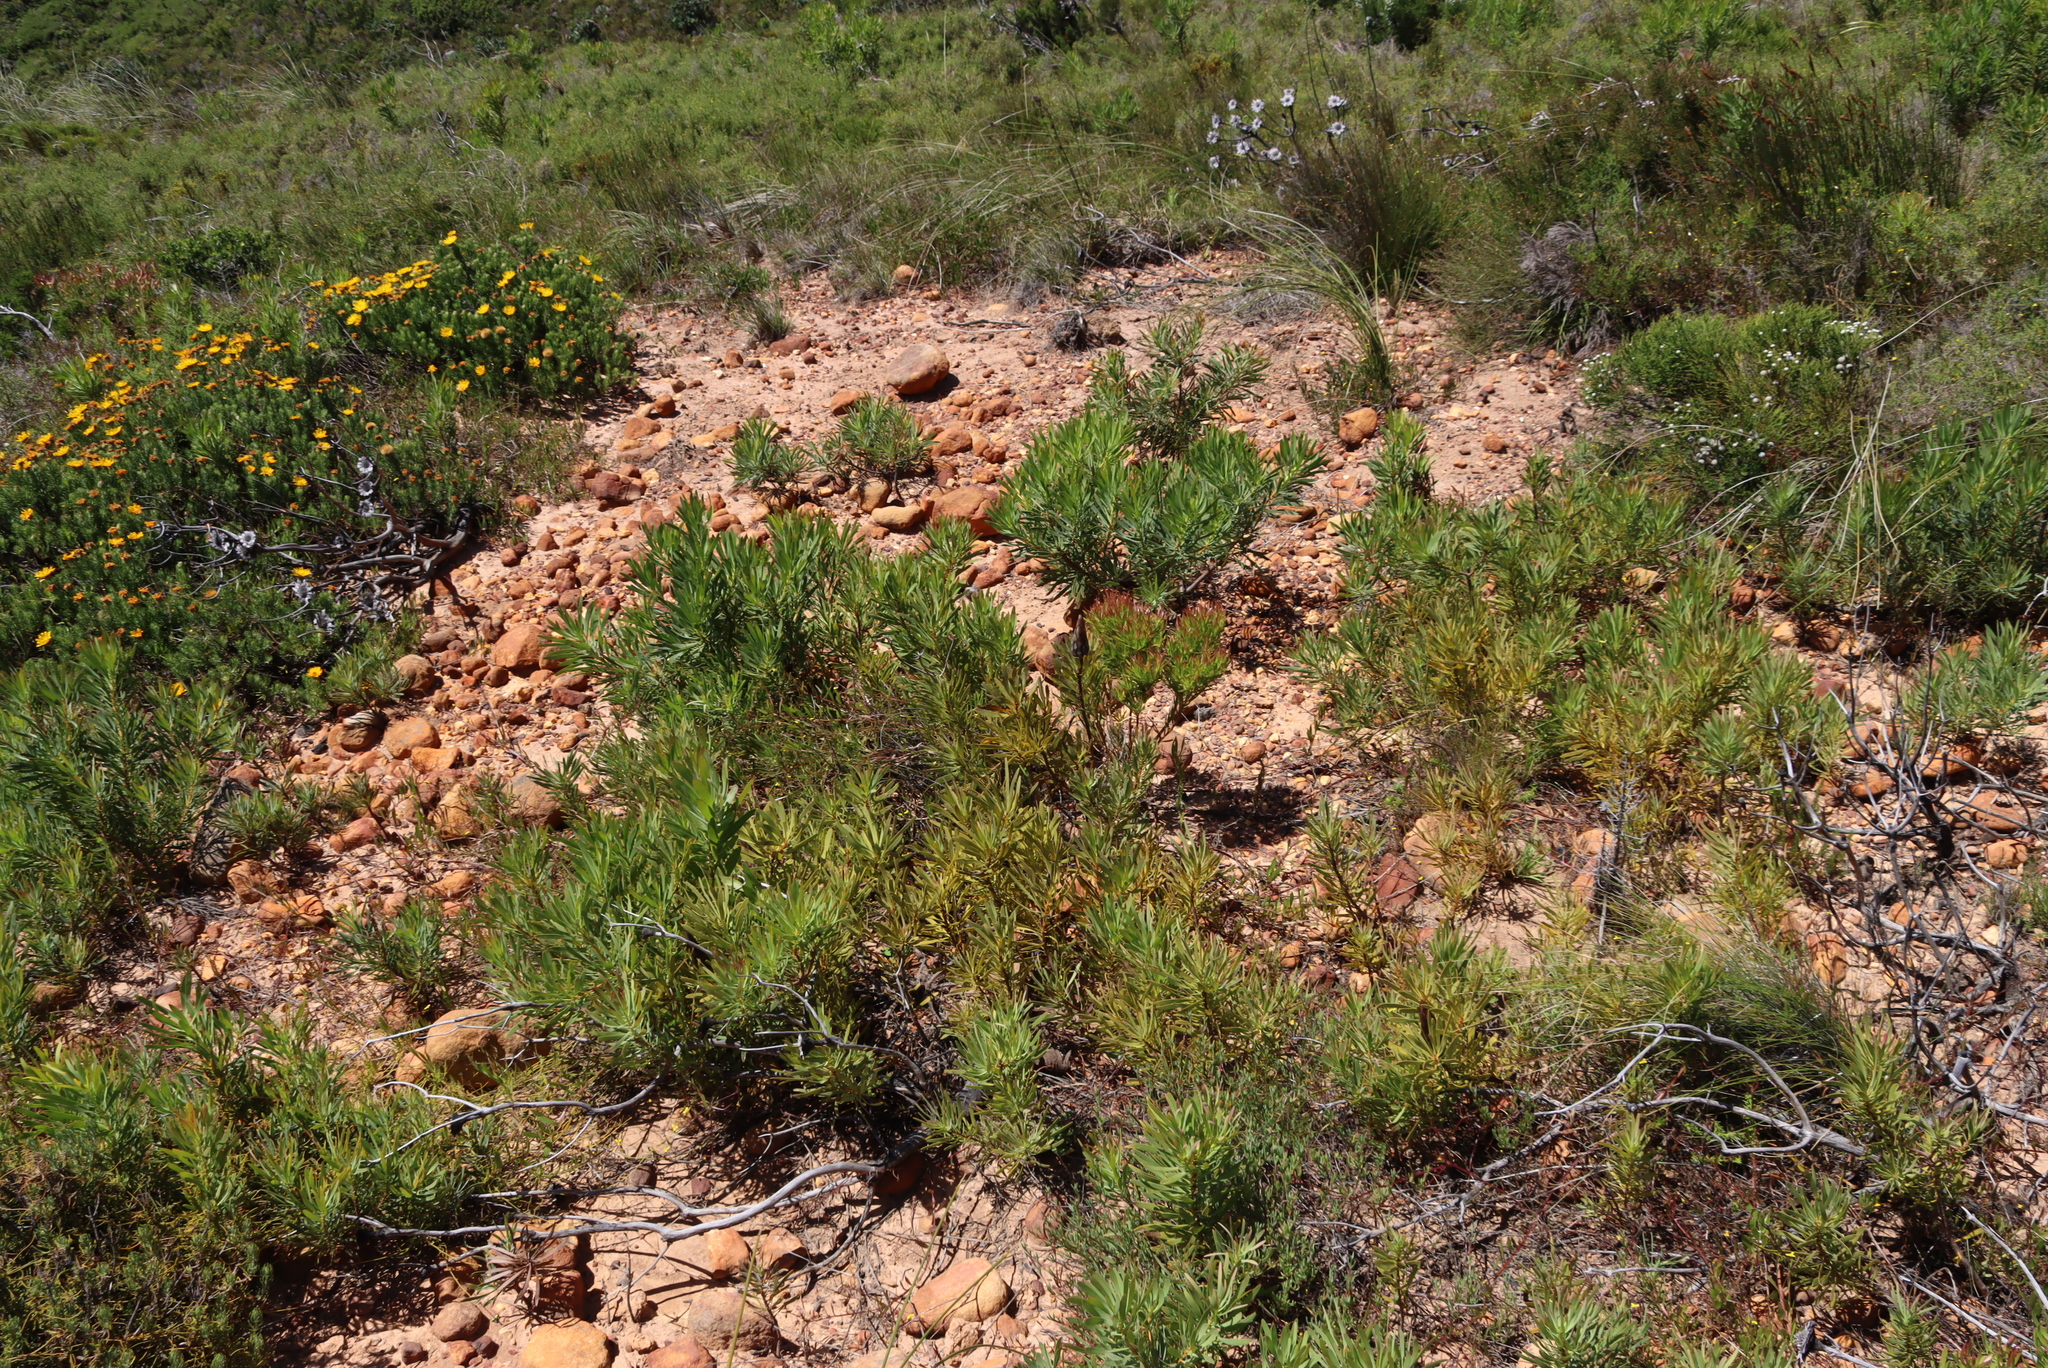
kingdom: Plantae
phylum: Tracheophyta
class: Magnoliopsida
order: Proteales
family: Proteaceae
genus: Protea
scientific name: Protea repens
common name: Sugarbush
